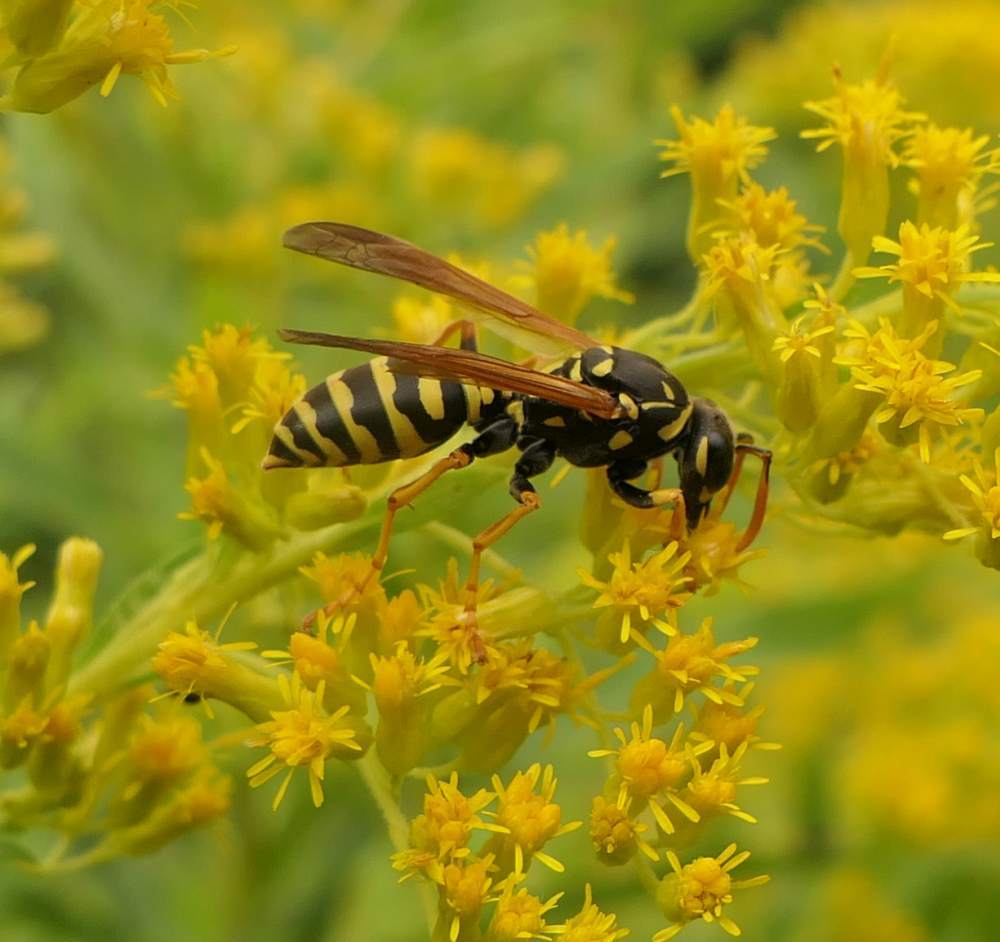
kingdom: Animalia
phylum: Arthropoda
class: Insecta
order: Hymenoptera
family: Eumenidae
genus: Polistes
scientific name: Polistes dominula
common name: Paper wasp
